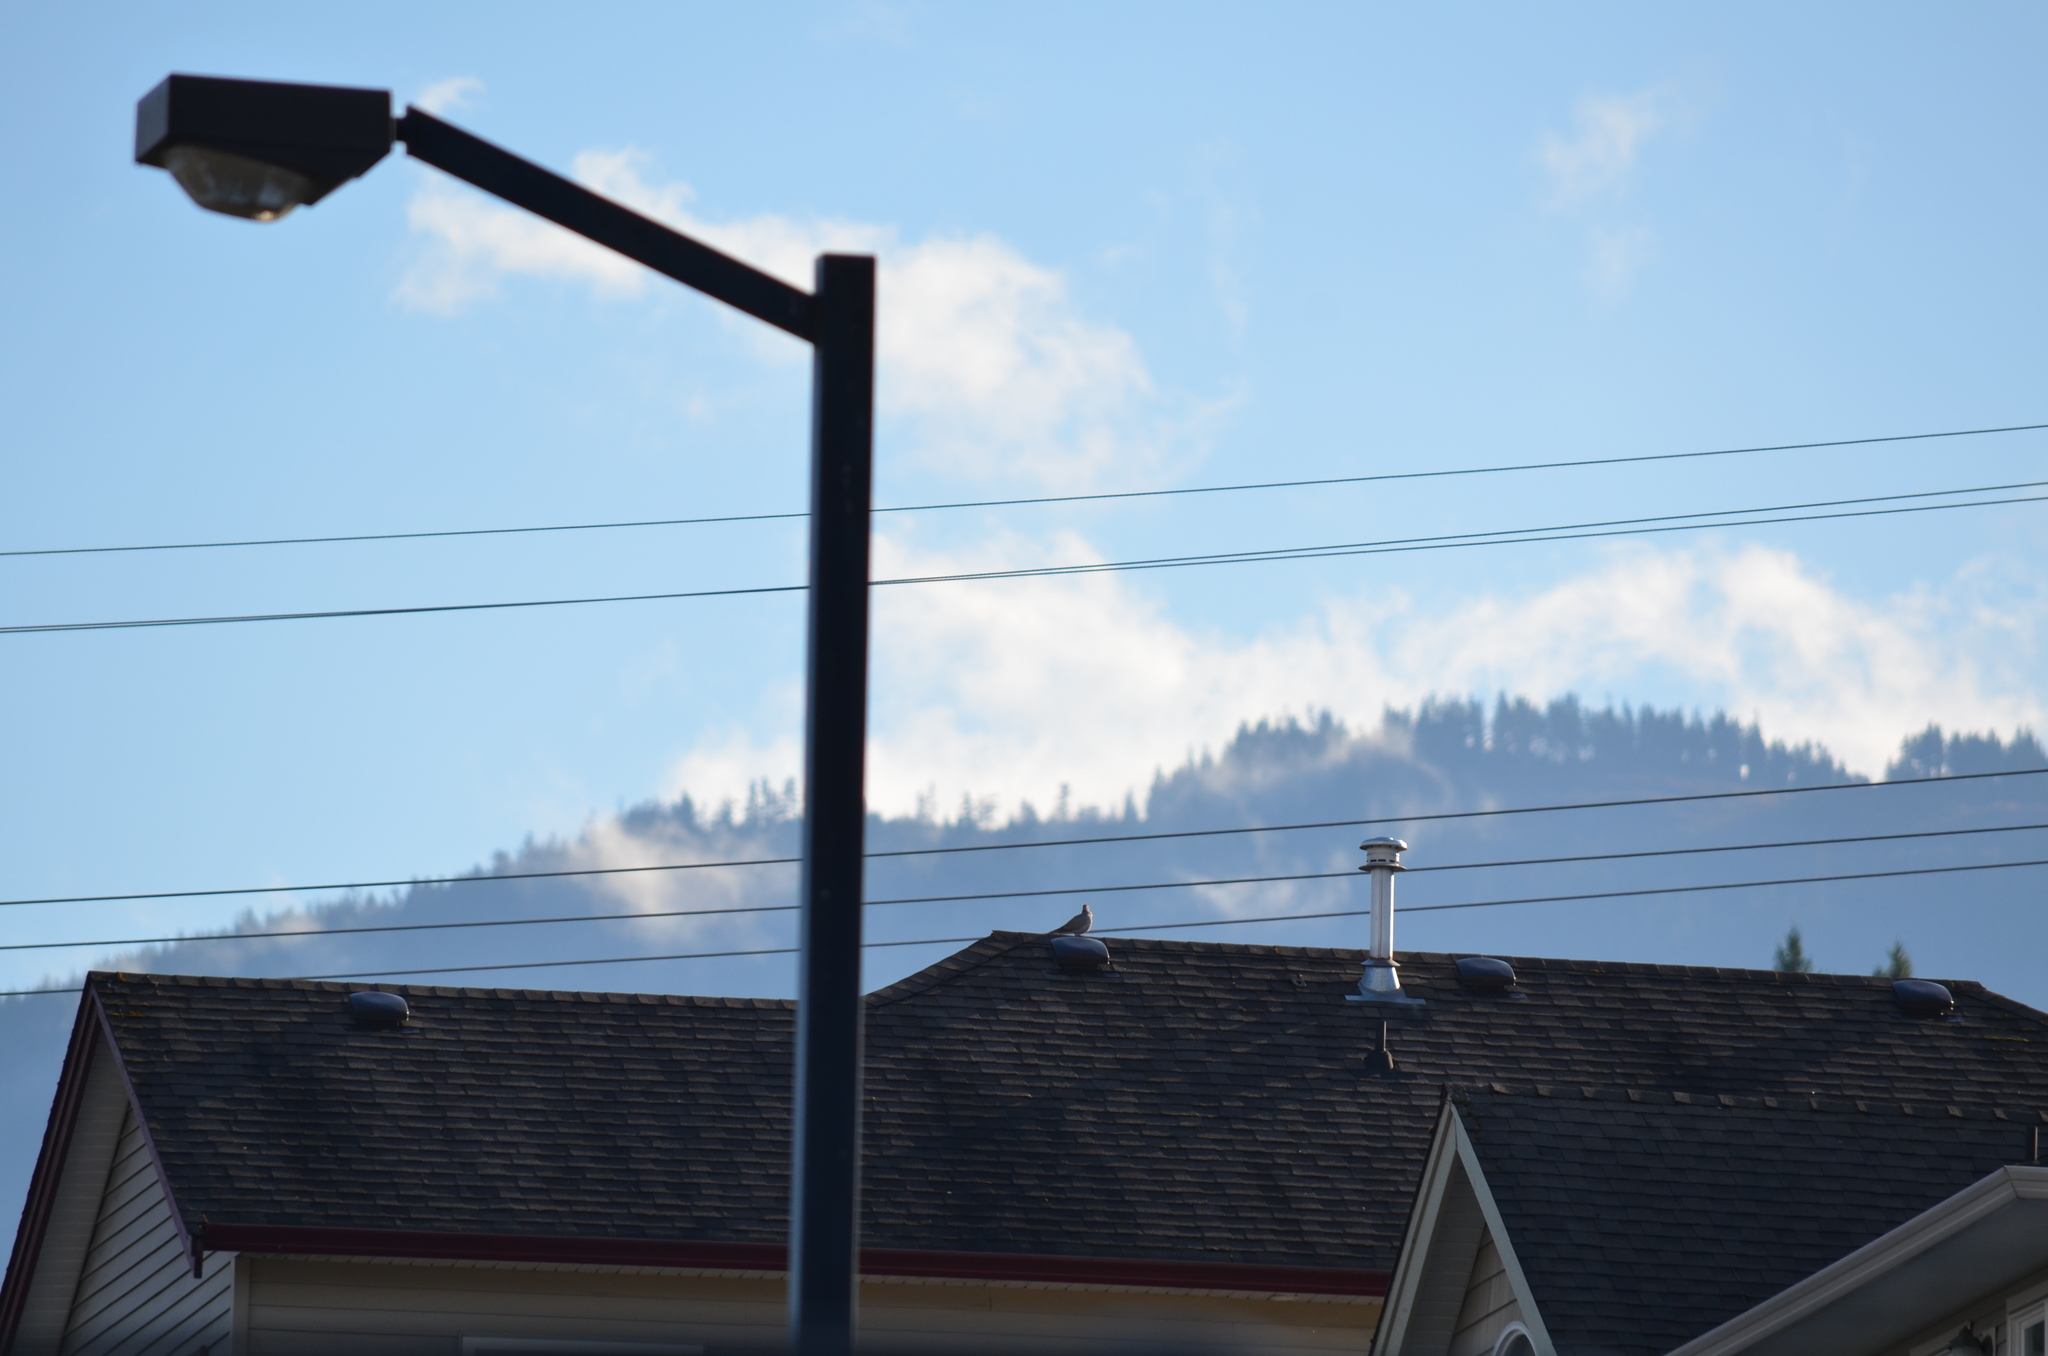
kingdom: Animalia
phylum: Chordata
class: Aves
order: Columbiformes
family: Columbidae
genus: Streptopelia
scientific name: Streptopelia decaocto
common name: Eurasian collared dove
